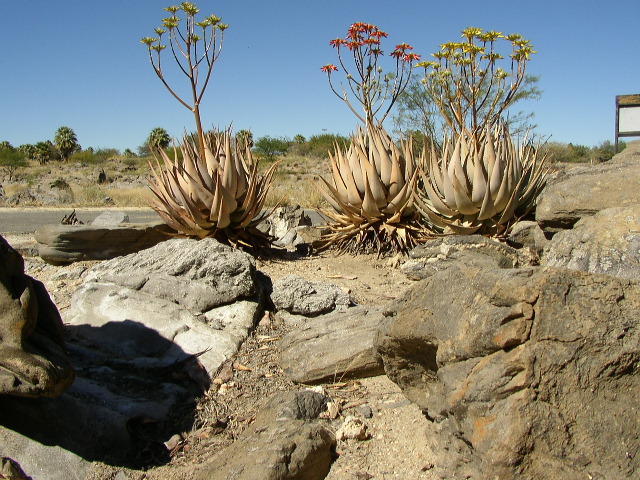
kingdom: Plantae
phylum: Tracheophyta
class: Liliopsida
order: Asparagales
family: Asphodelaceae
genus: Aloe
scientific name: Aloe hereroensis
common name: Herero aloe
